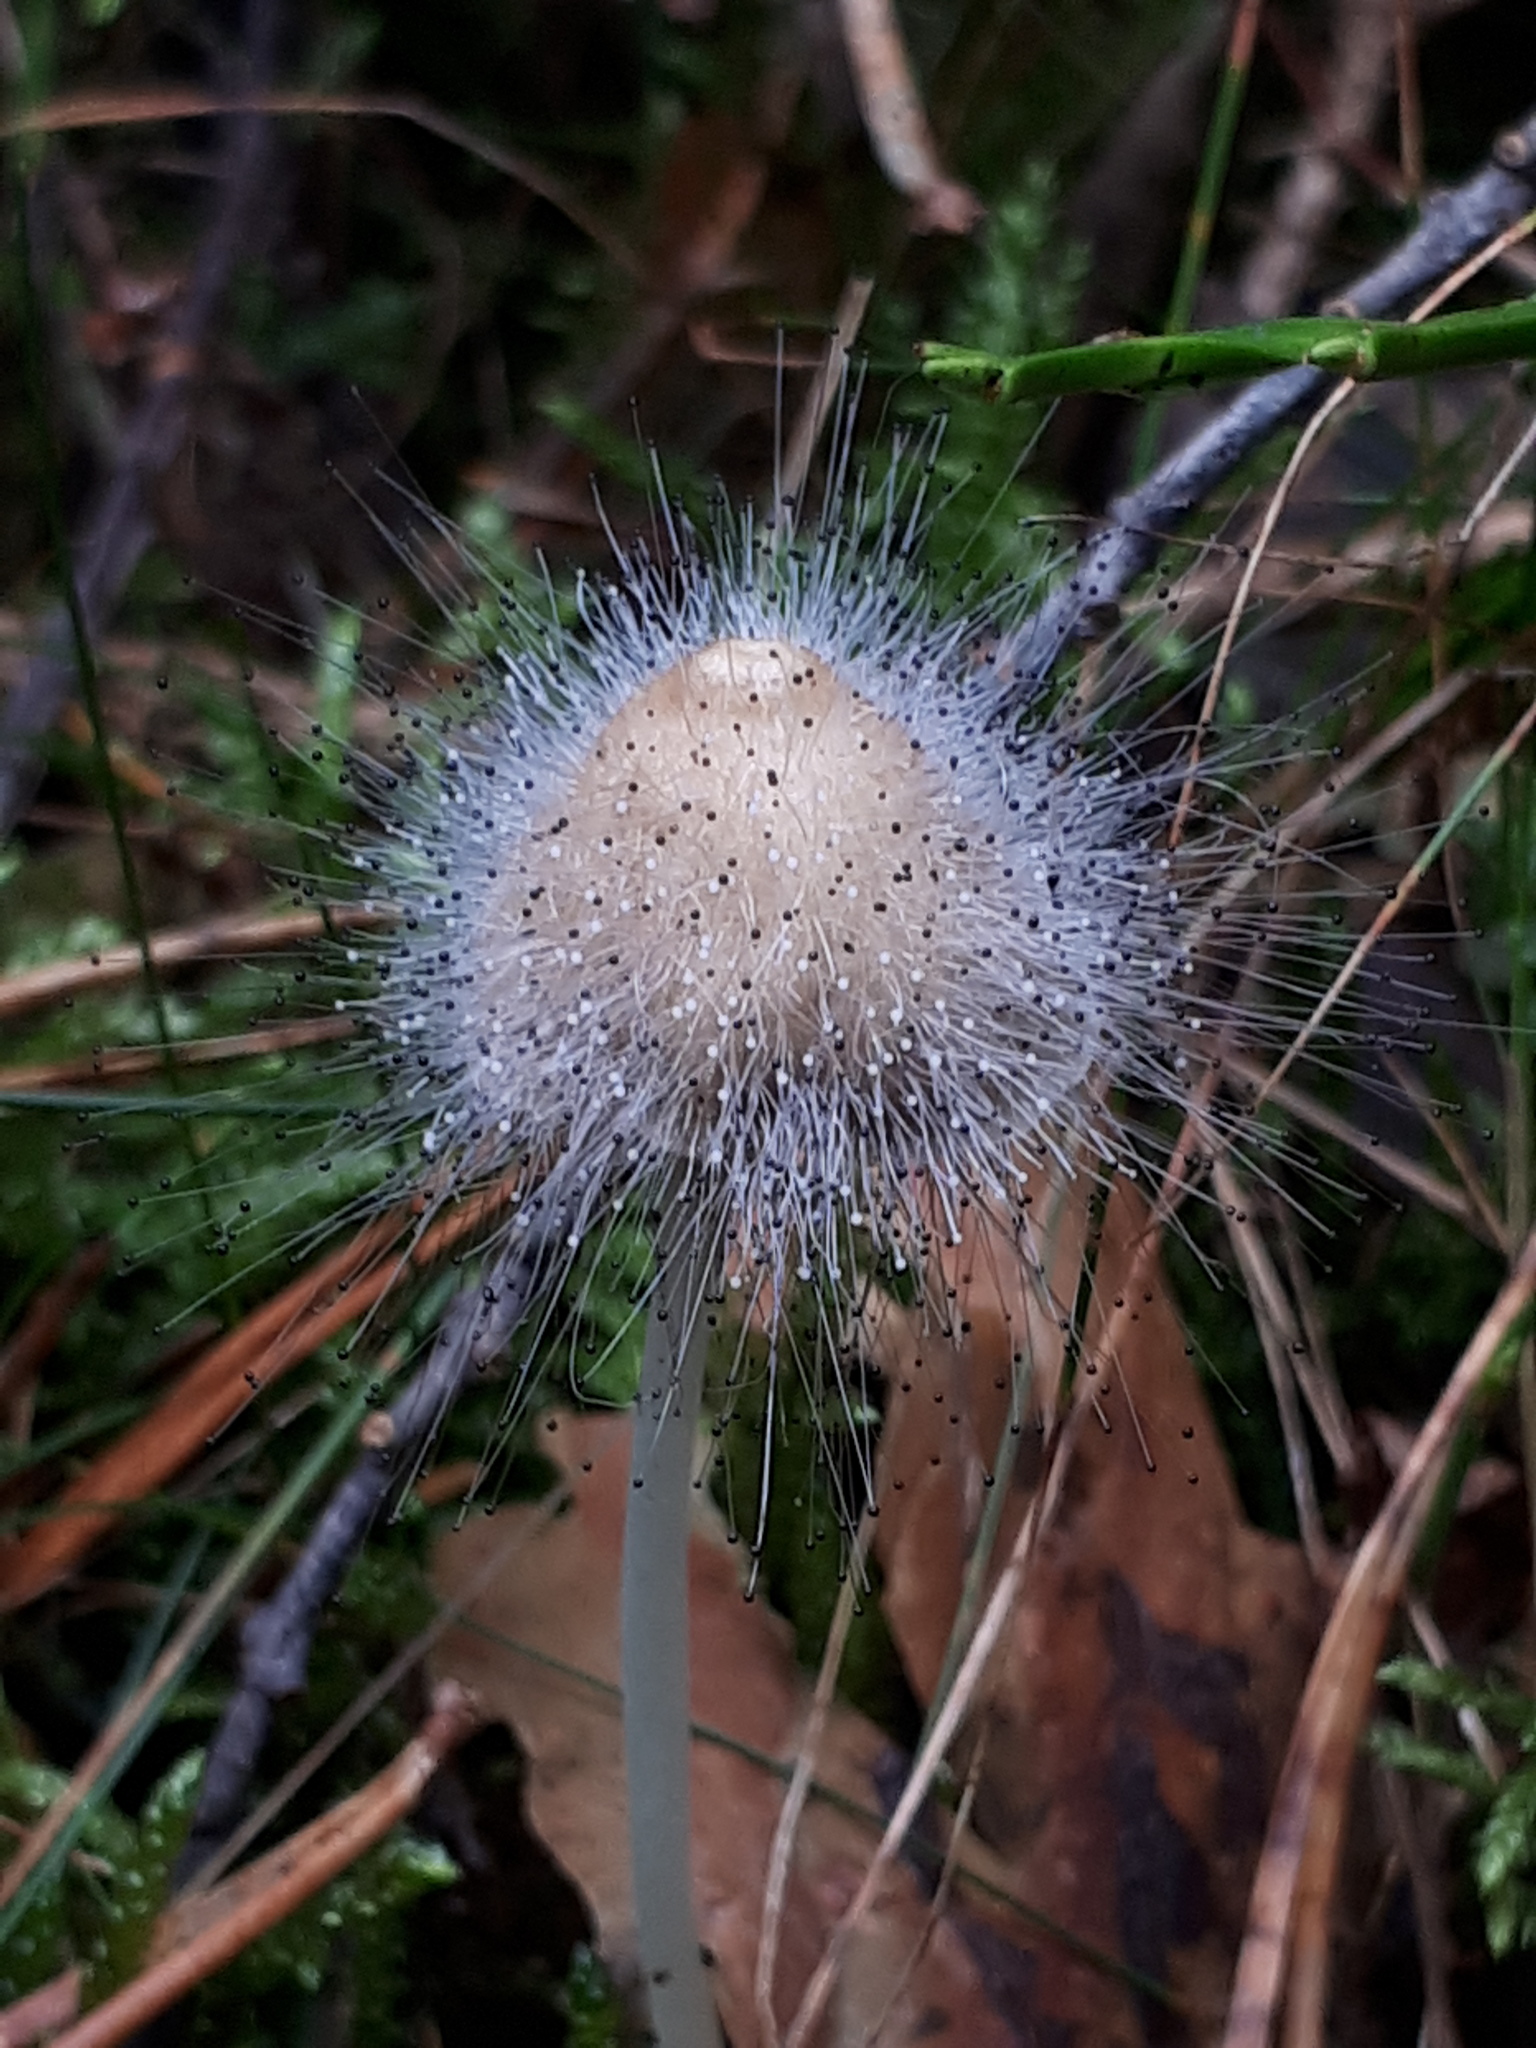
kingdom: Fungi
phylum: Mucoromycota
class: Mucoromycetes
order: Mucorales
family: Phycomycetaceae
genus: Spinellus
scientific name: Spinellus fusiger
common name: Bonnet mould
